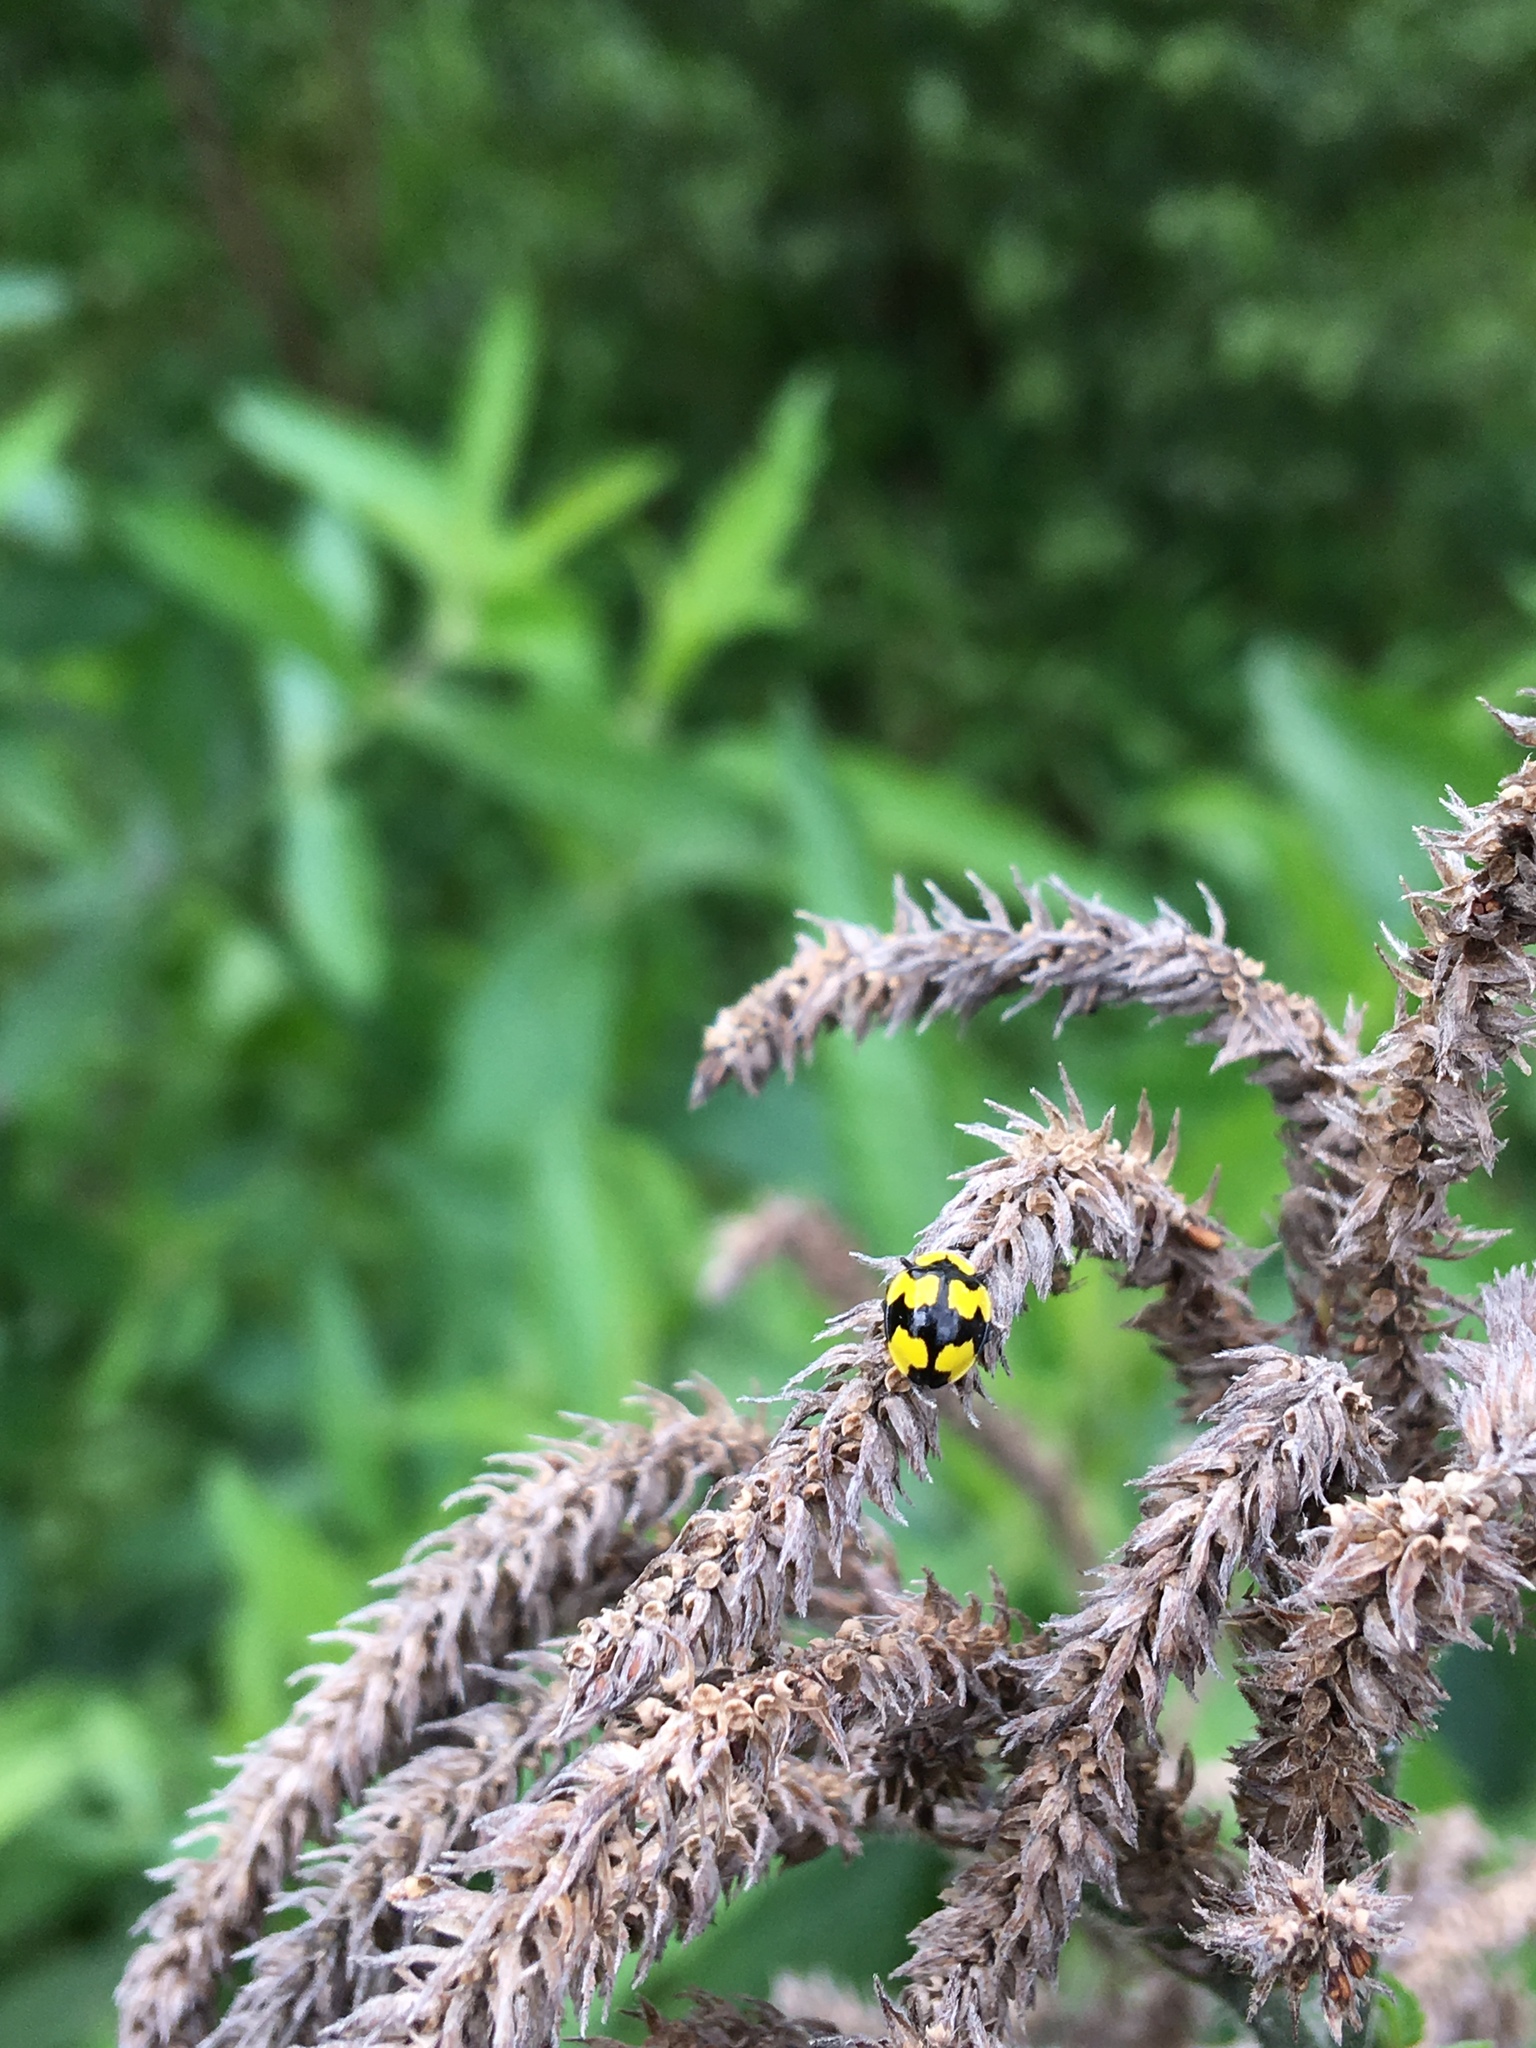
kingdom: Animalia
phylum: Arthropoda
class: Insecta
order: Coleoptera
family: Coccinellidae
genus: Illeis
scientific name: Illeis galbula
